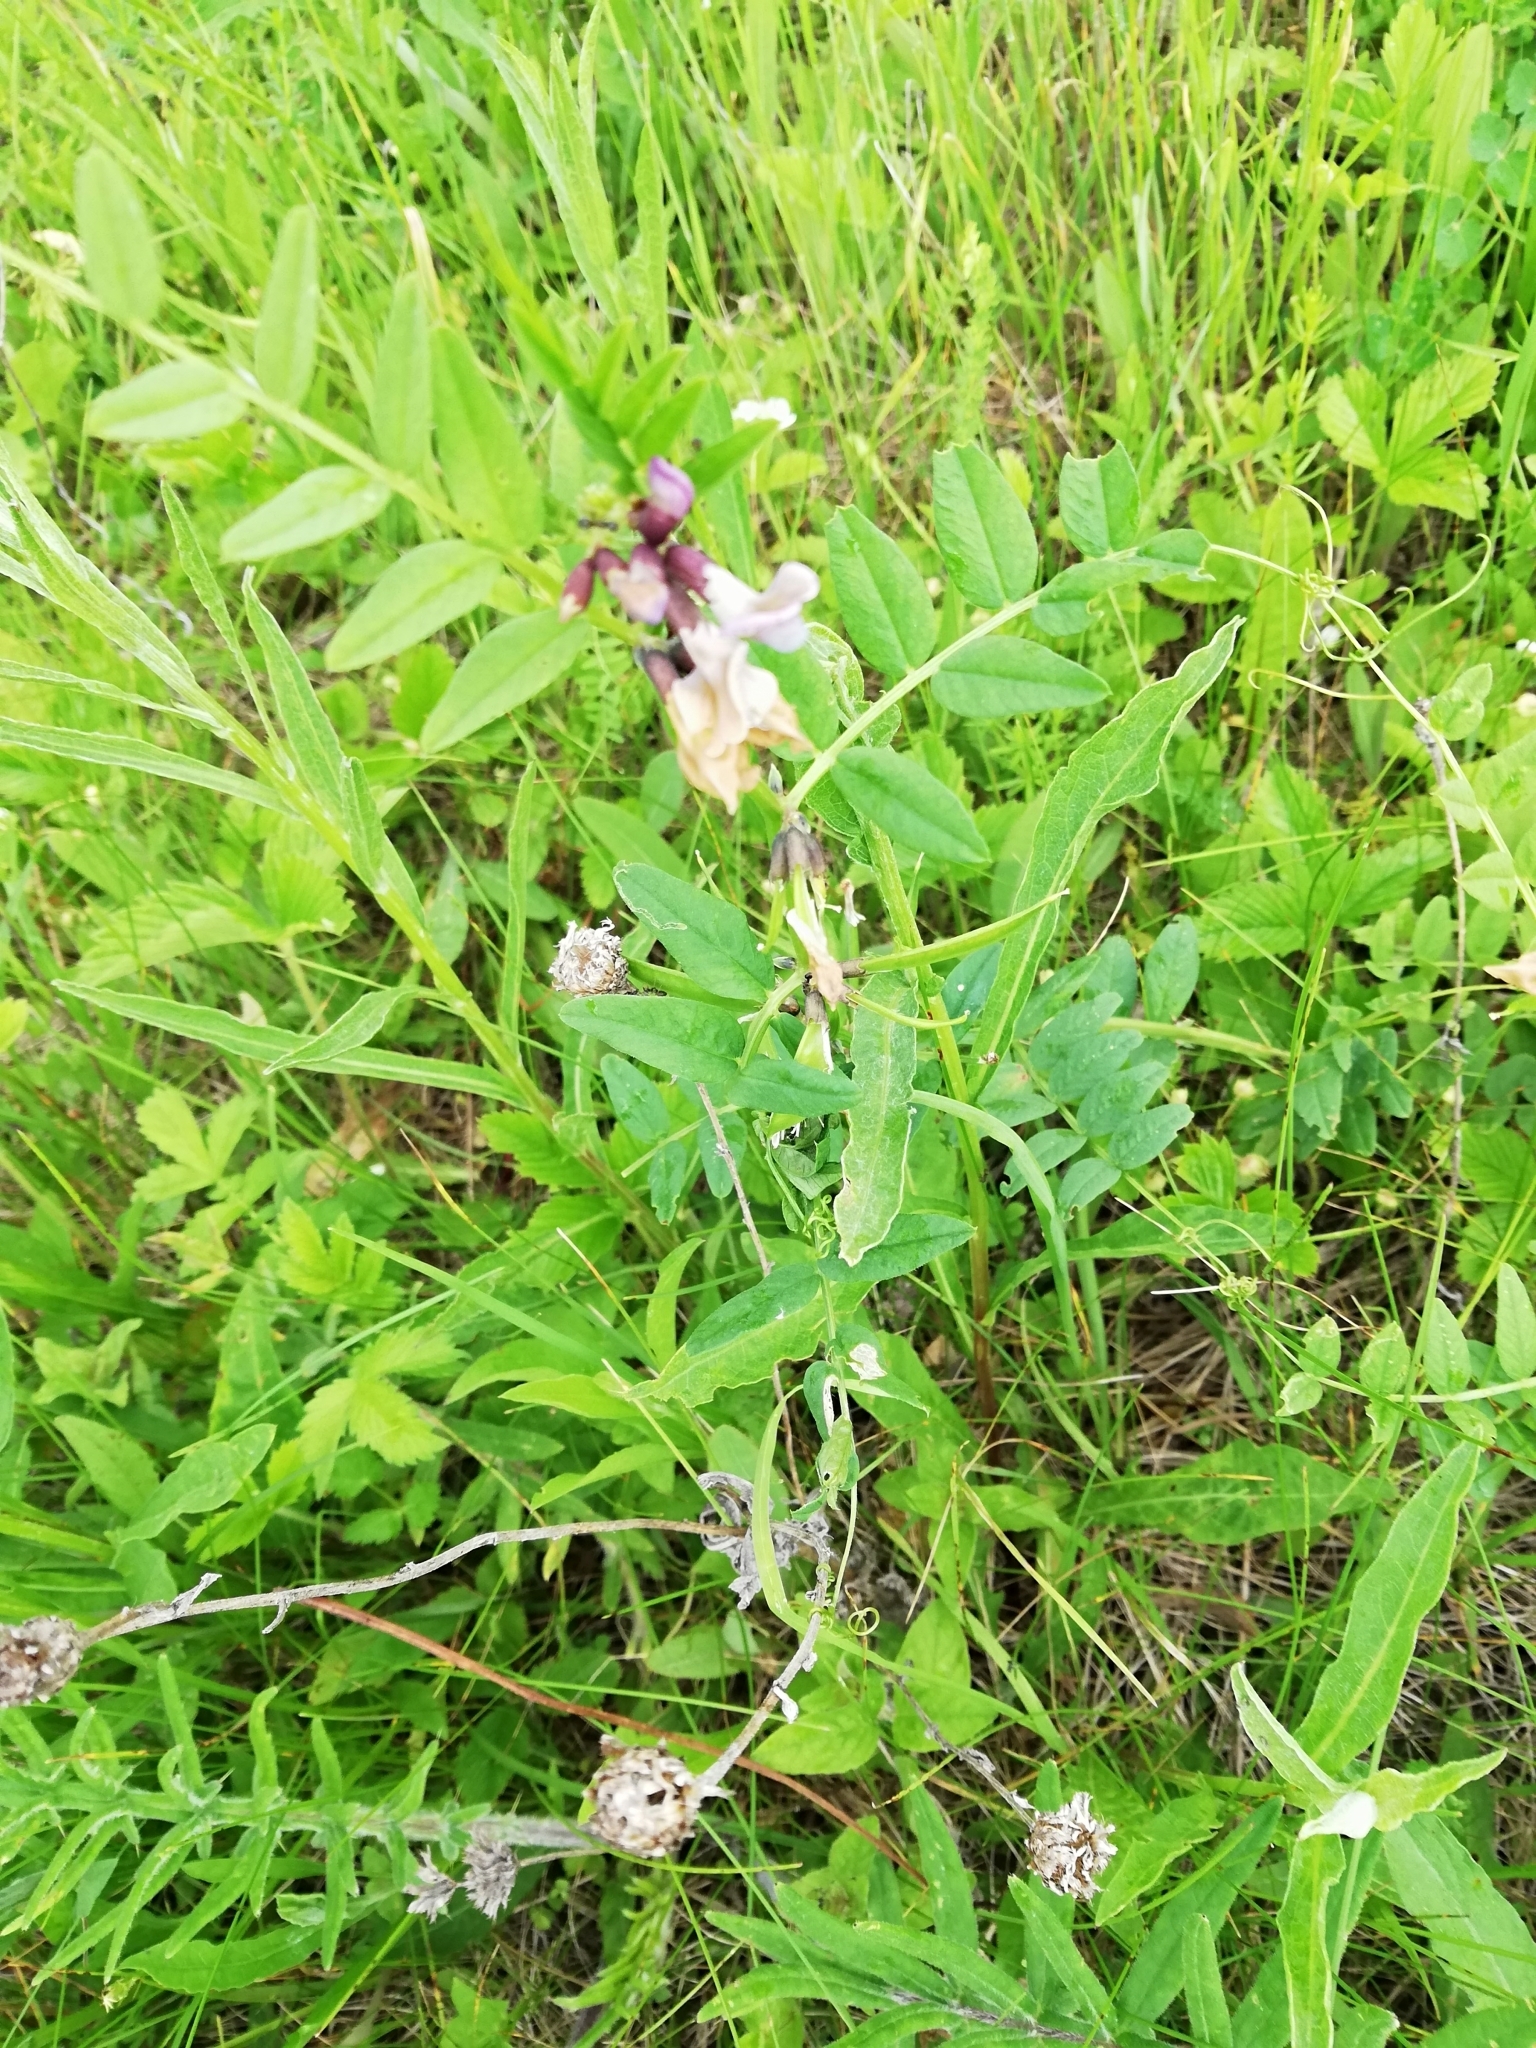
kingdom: Plantae
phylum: Tracheophyta
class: Magnoliopsida
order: Fabales
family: Fabaceae
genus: Vicia
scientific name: Vicia sepium
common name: Bush vetch
